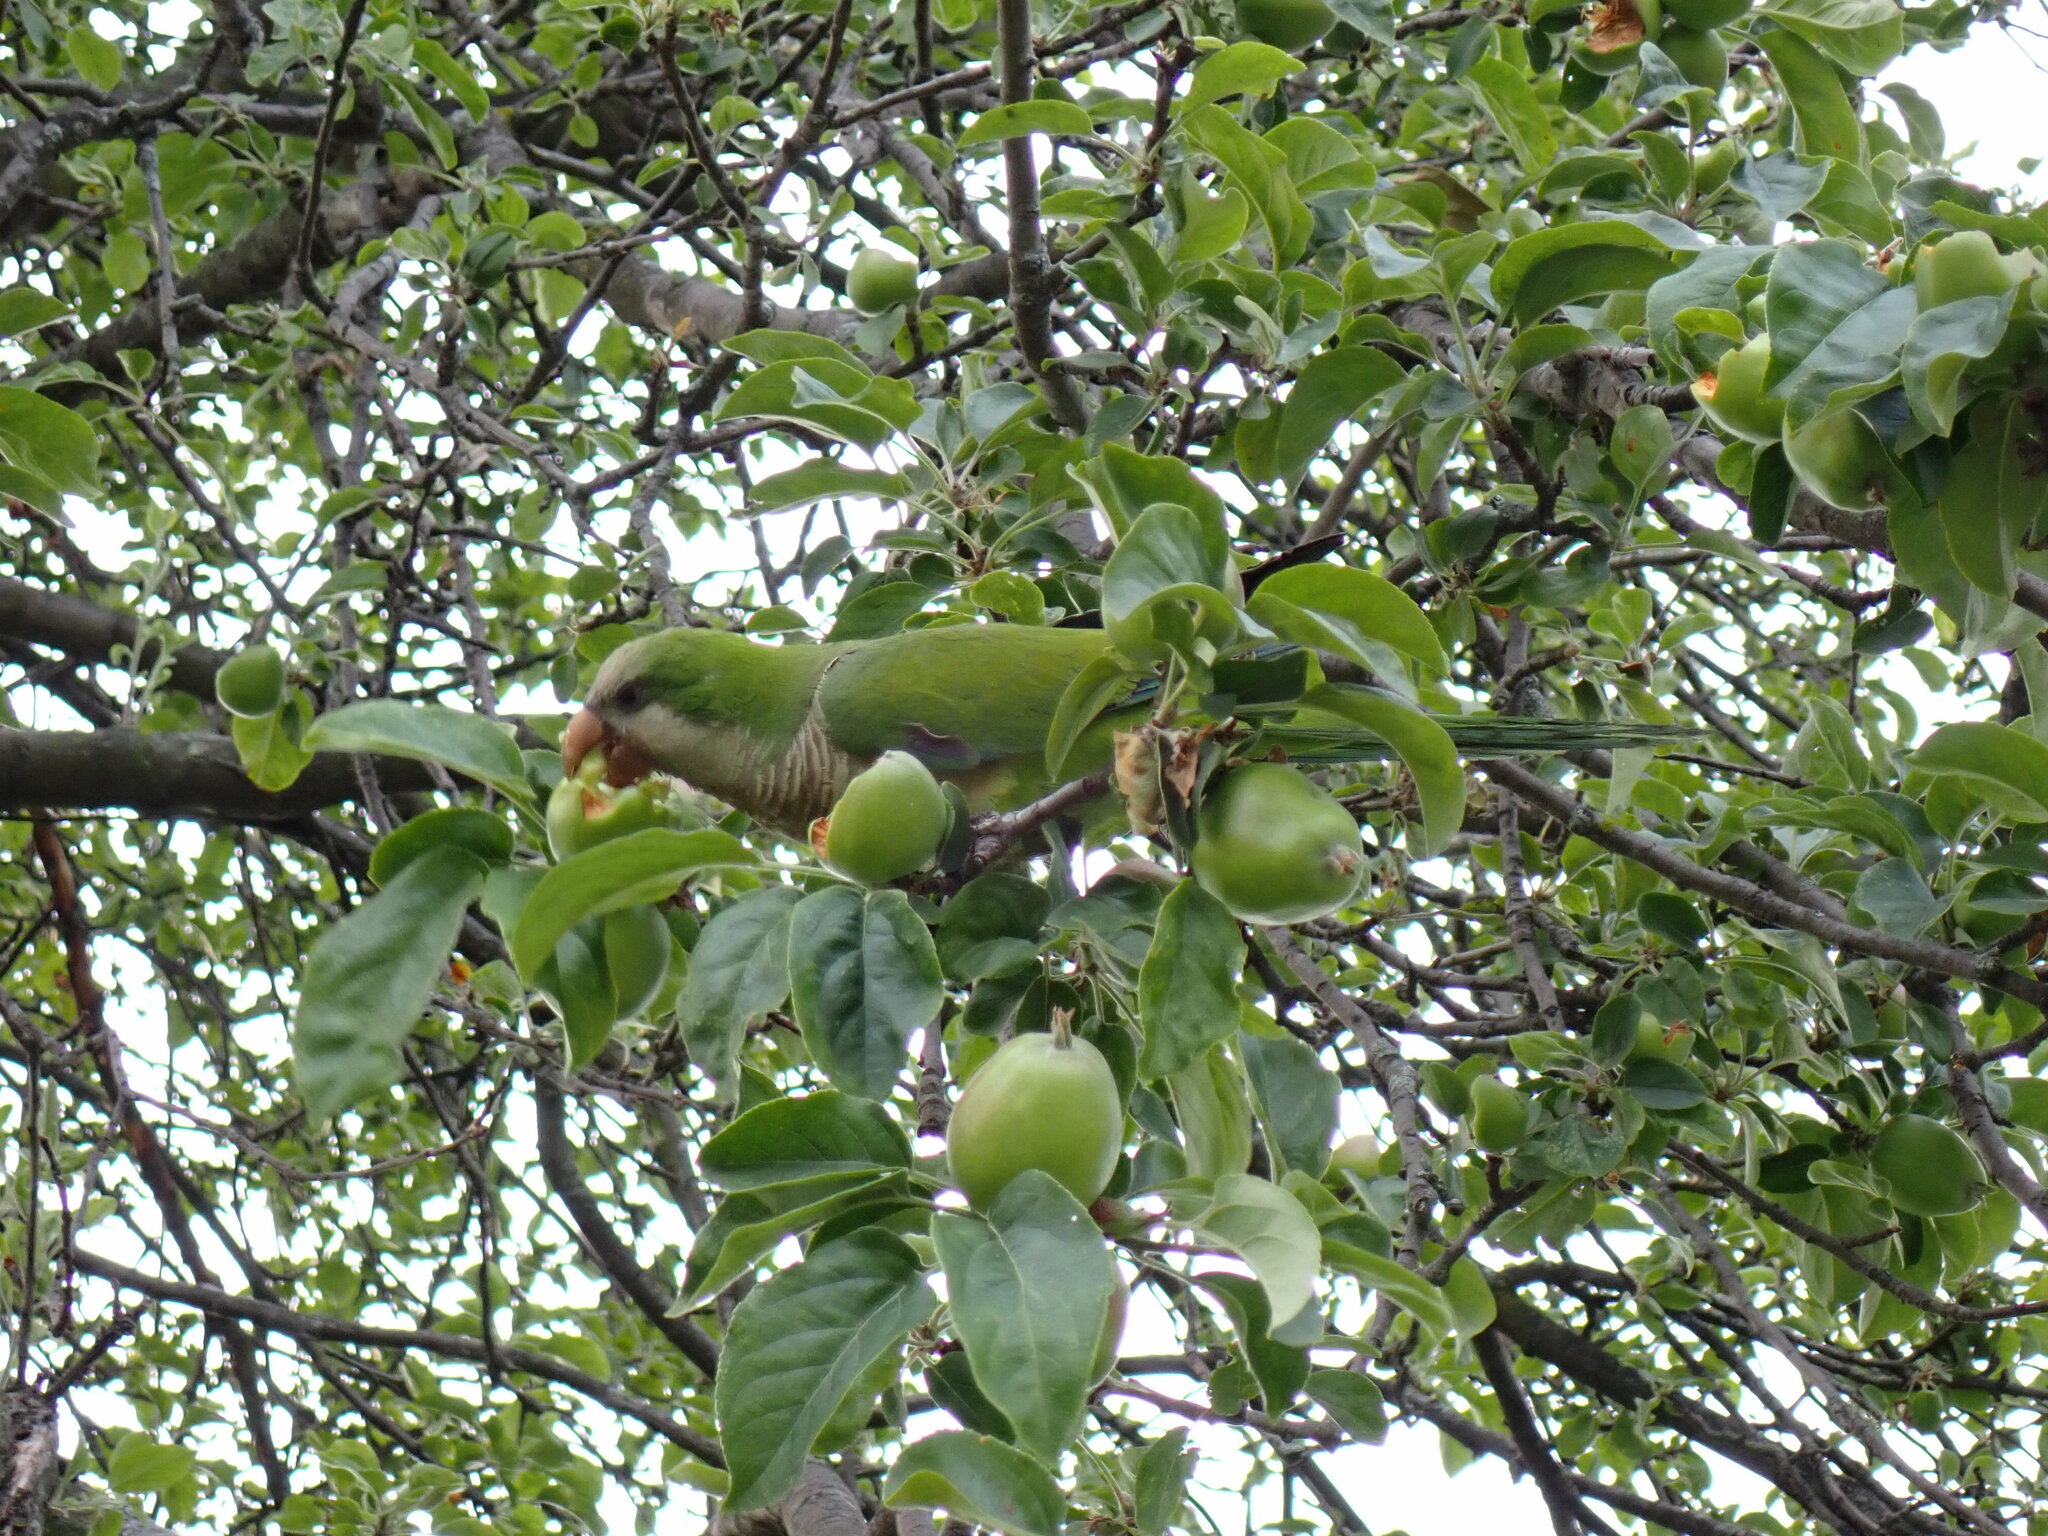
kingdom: Animalia
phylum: Chordata
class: Aves
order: Psittaciformes
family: Psittacidae
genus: Myiopsitta
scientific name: Myiopsitta monachus
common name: Monk parakeet
